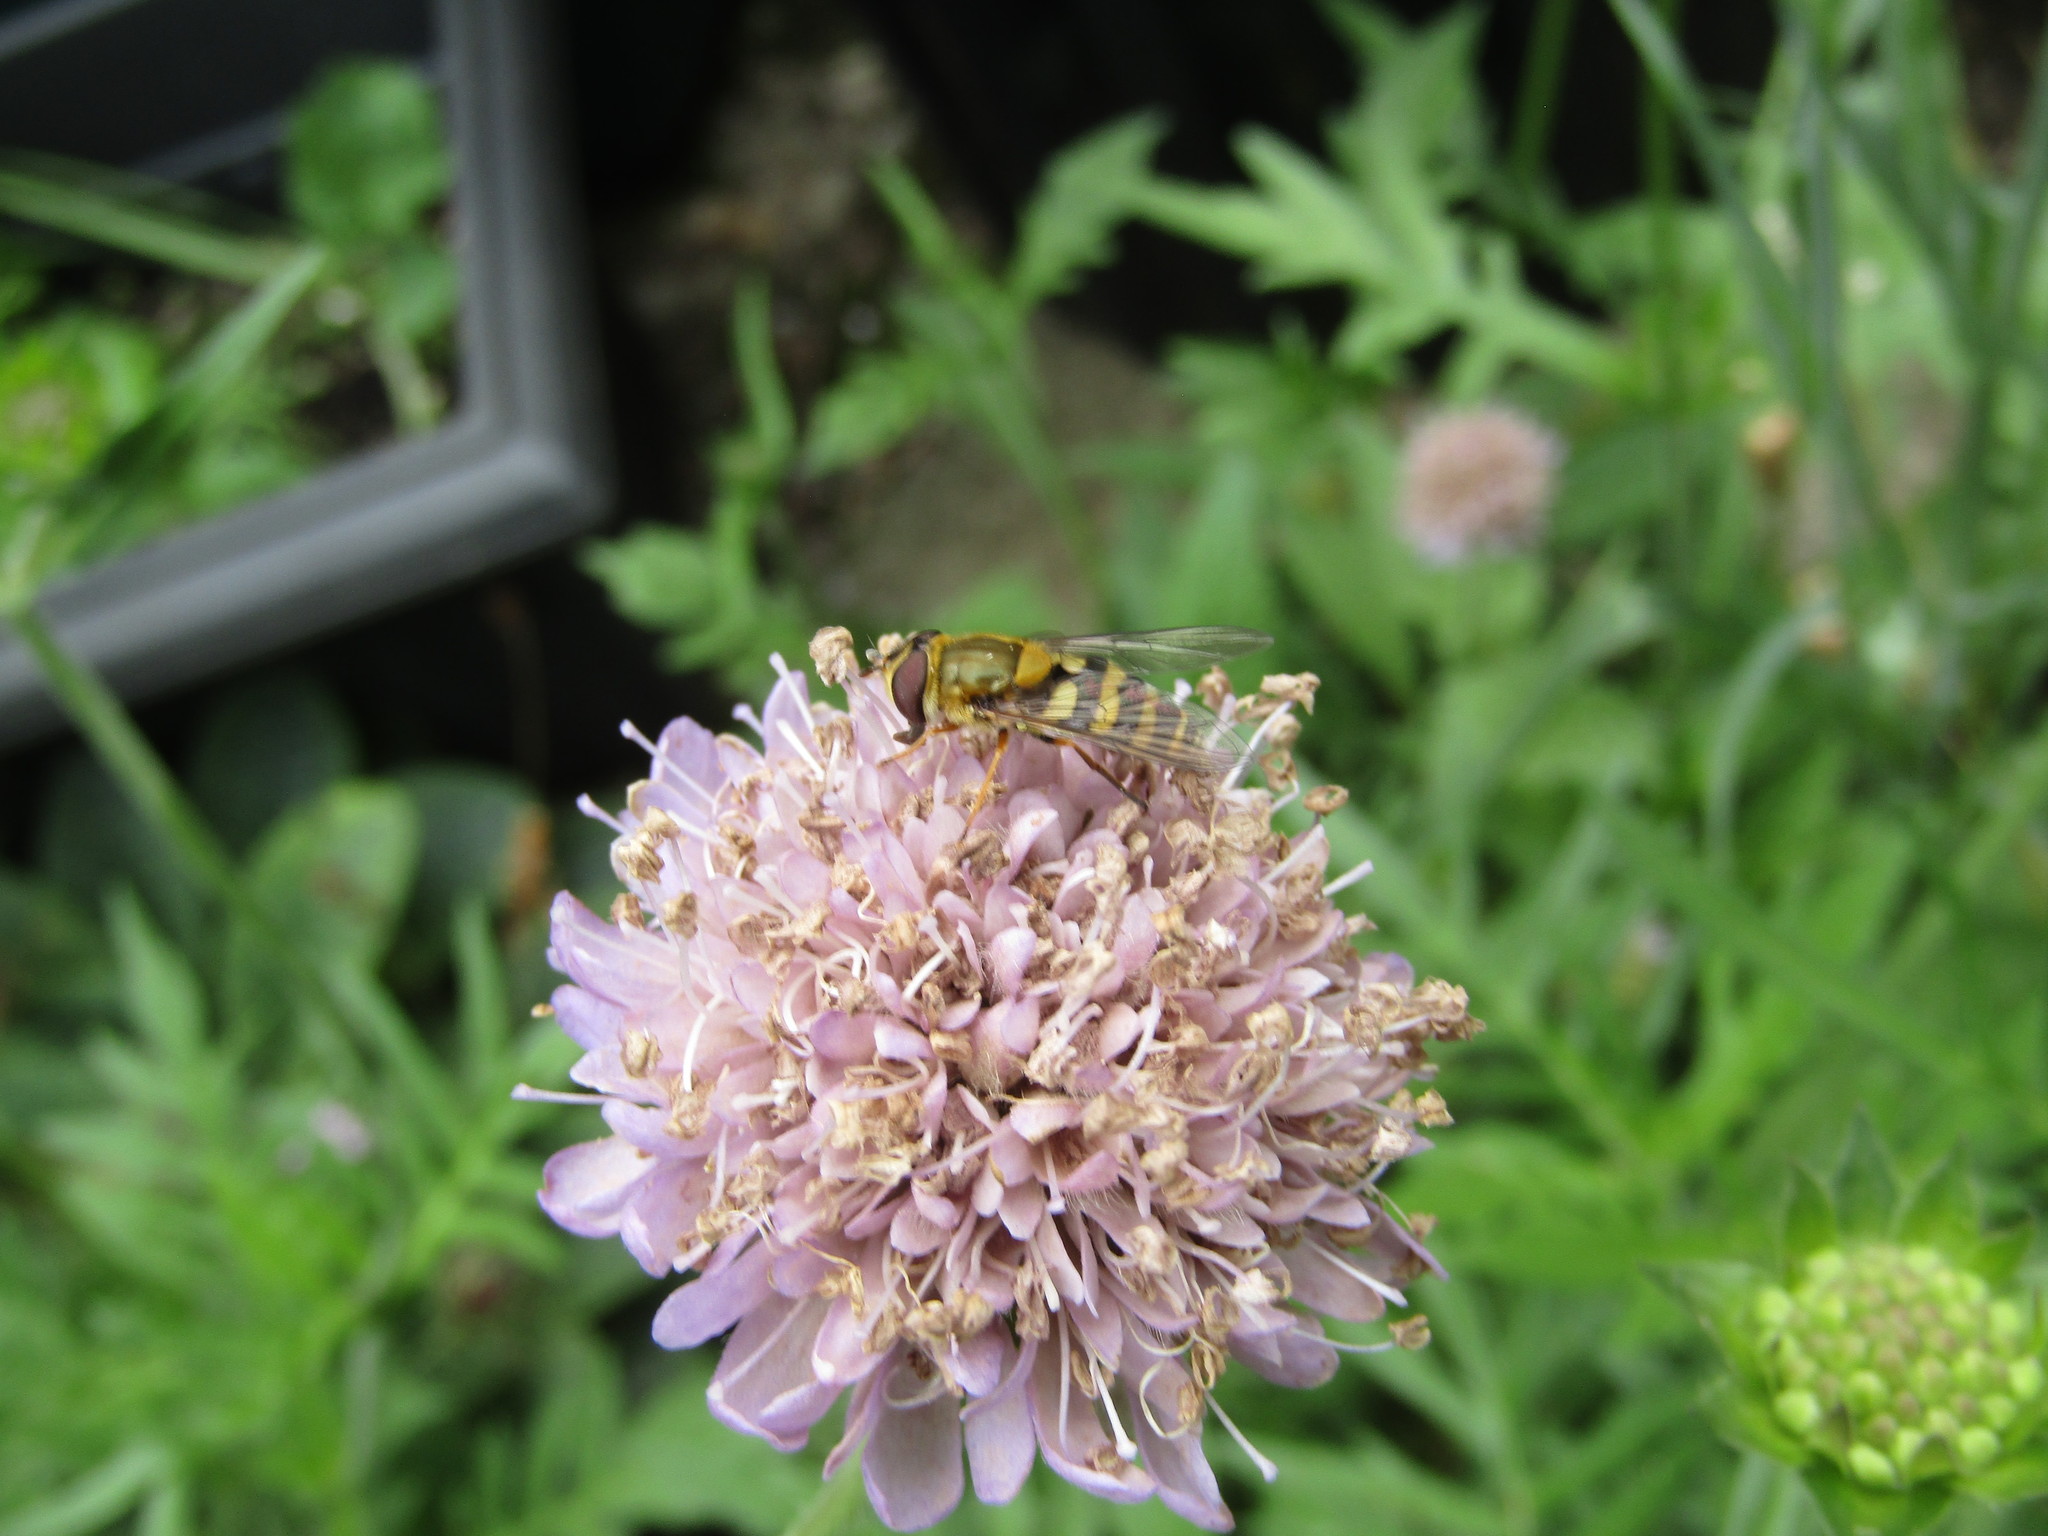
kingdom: Animalia
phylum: Arthropoda
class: Insecta
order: Diptera
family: Syrphidae
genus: Syrphus
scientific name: Syrphus
